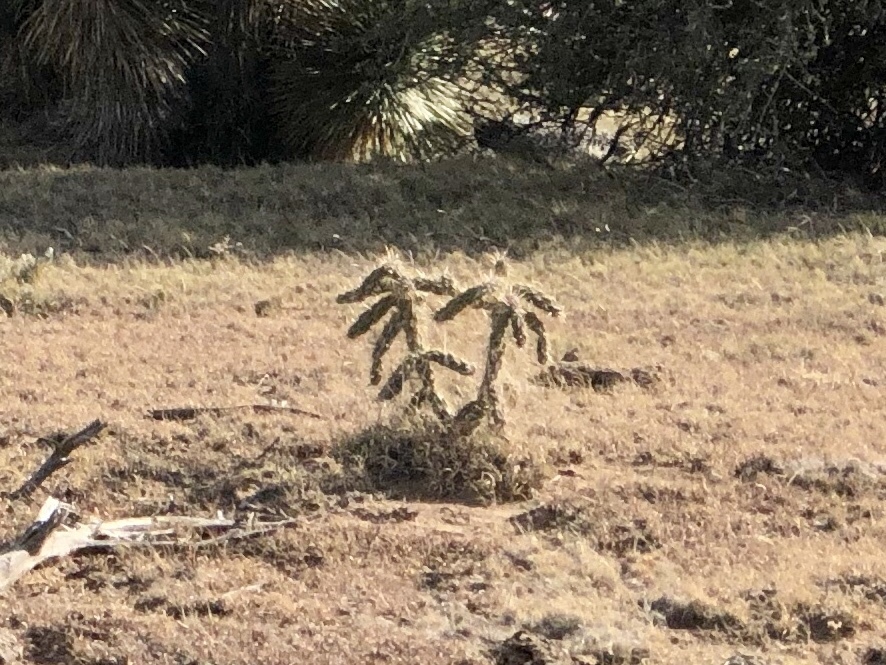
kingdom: Plantae
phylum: Tracheophyta
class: Magnoliopsida
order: Caryophyllales
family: Cactaceae
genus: Cylindropuntia
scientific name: Cylindropuntia imbricata
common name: Candelabrum cactus
